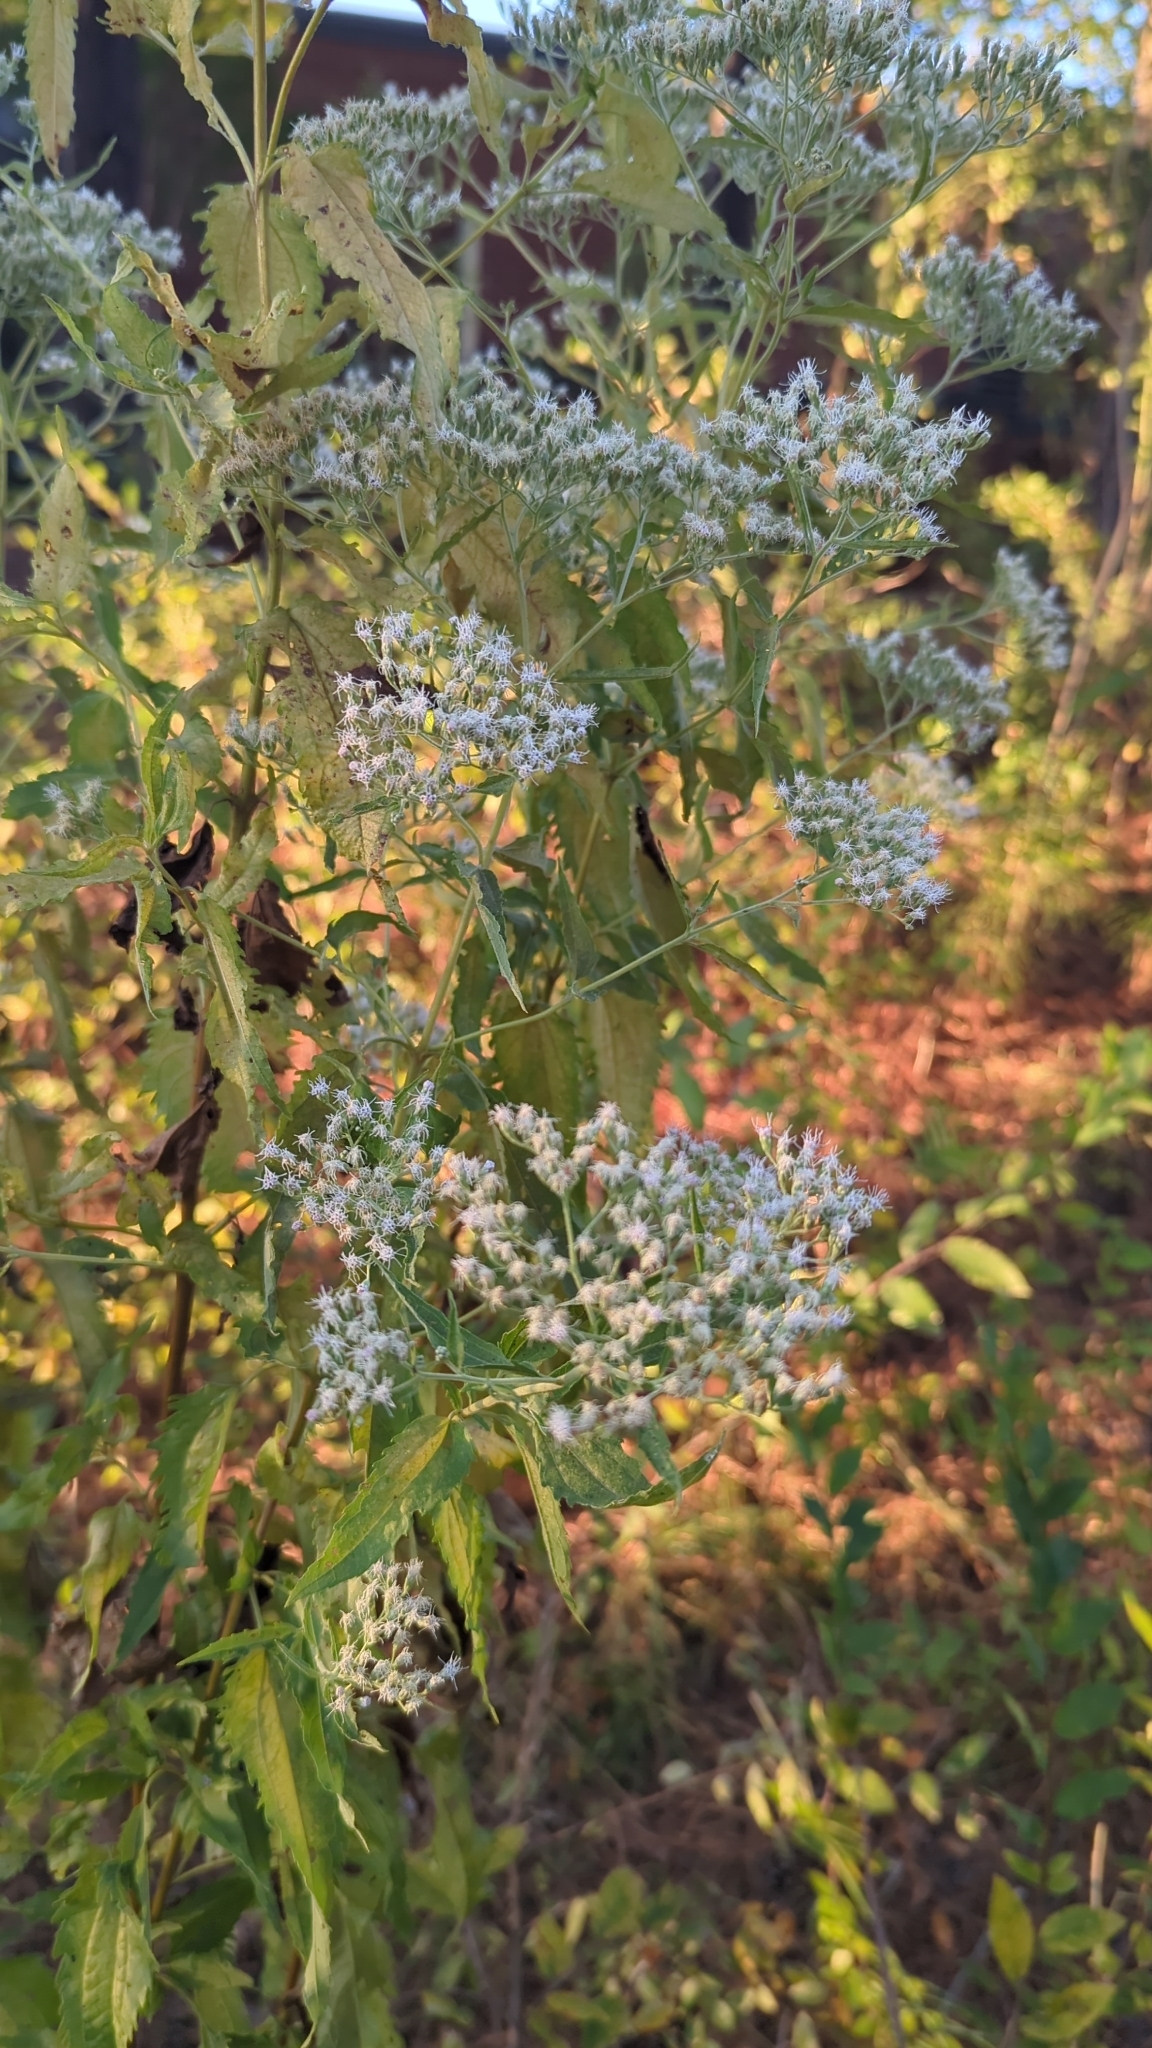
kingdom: Plantae
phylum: Tracheophyta
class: Magnoliopsida
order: Asterales
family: Asteraceae
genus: Eupatorium
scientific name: Eupatorium serotinum
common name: Late boneset
